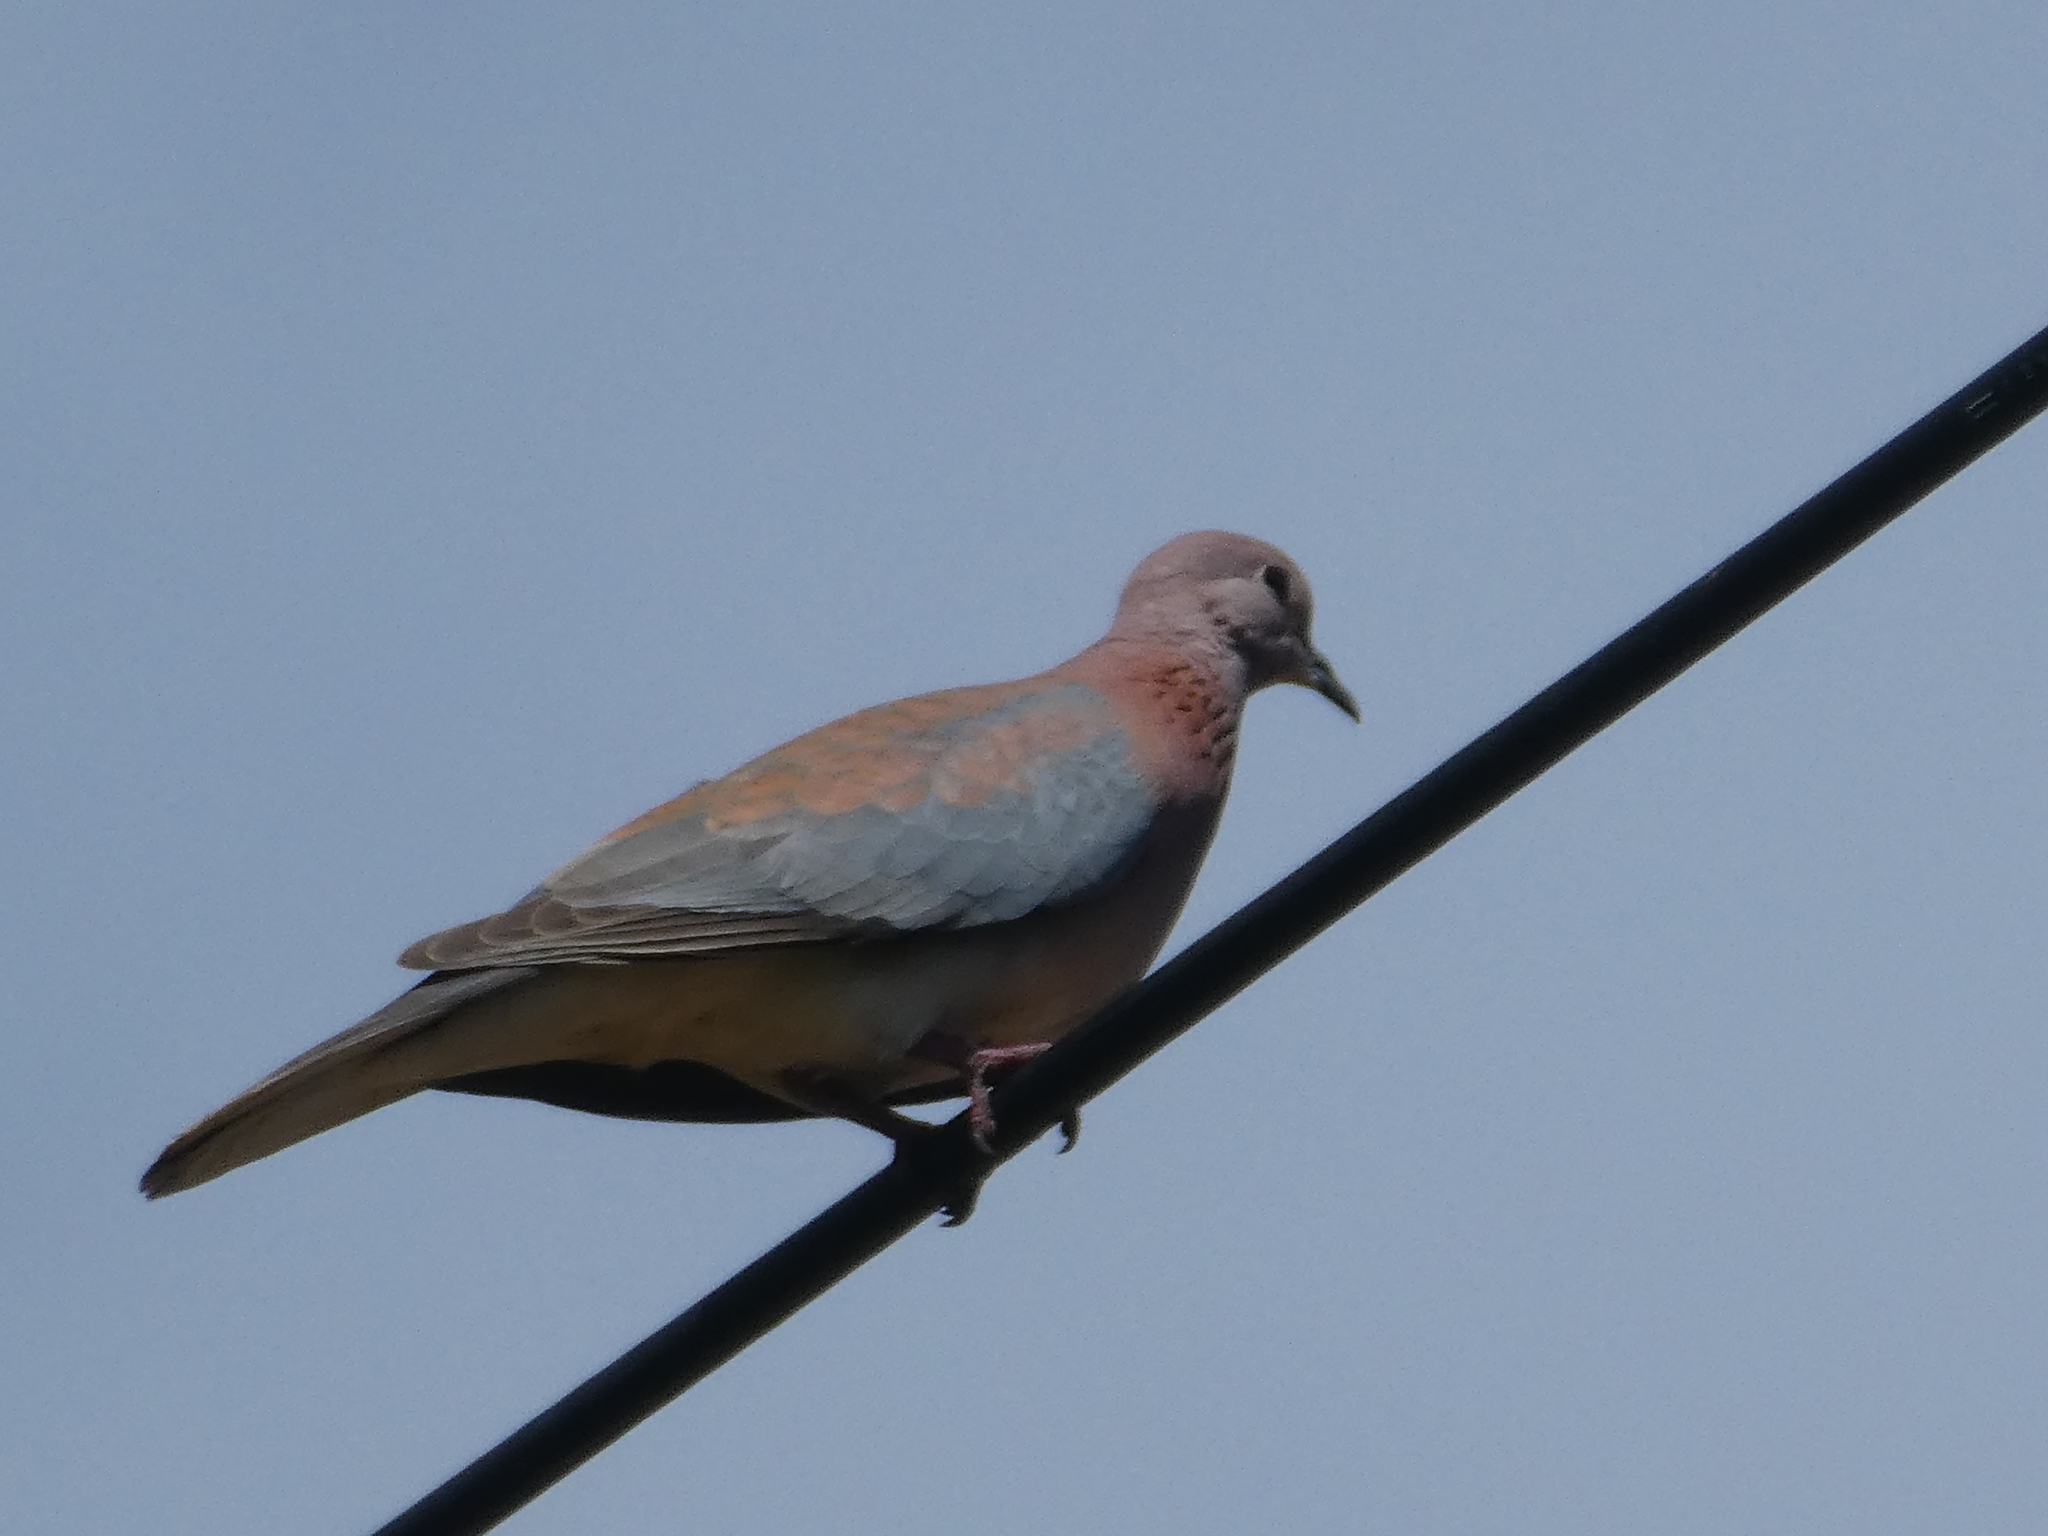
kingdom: Animalia
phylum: Chordata
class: Aves
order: Columbiformes
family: Columbidae
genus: Spilopelia
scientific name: Spilopelia senegalensis
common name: Laughing dove
